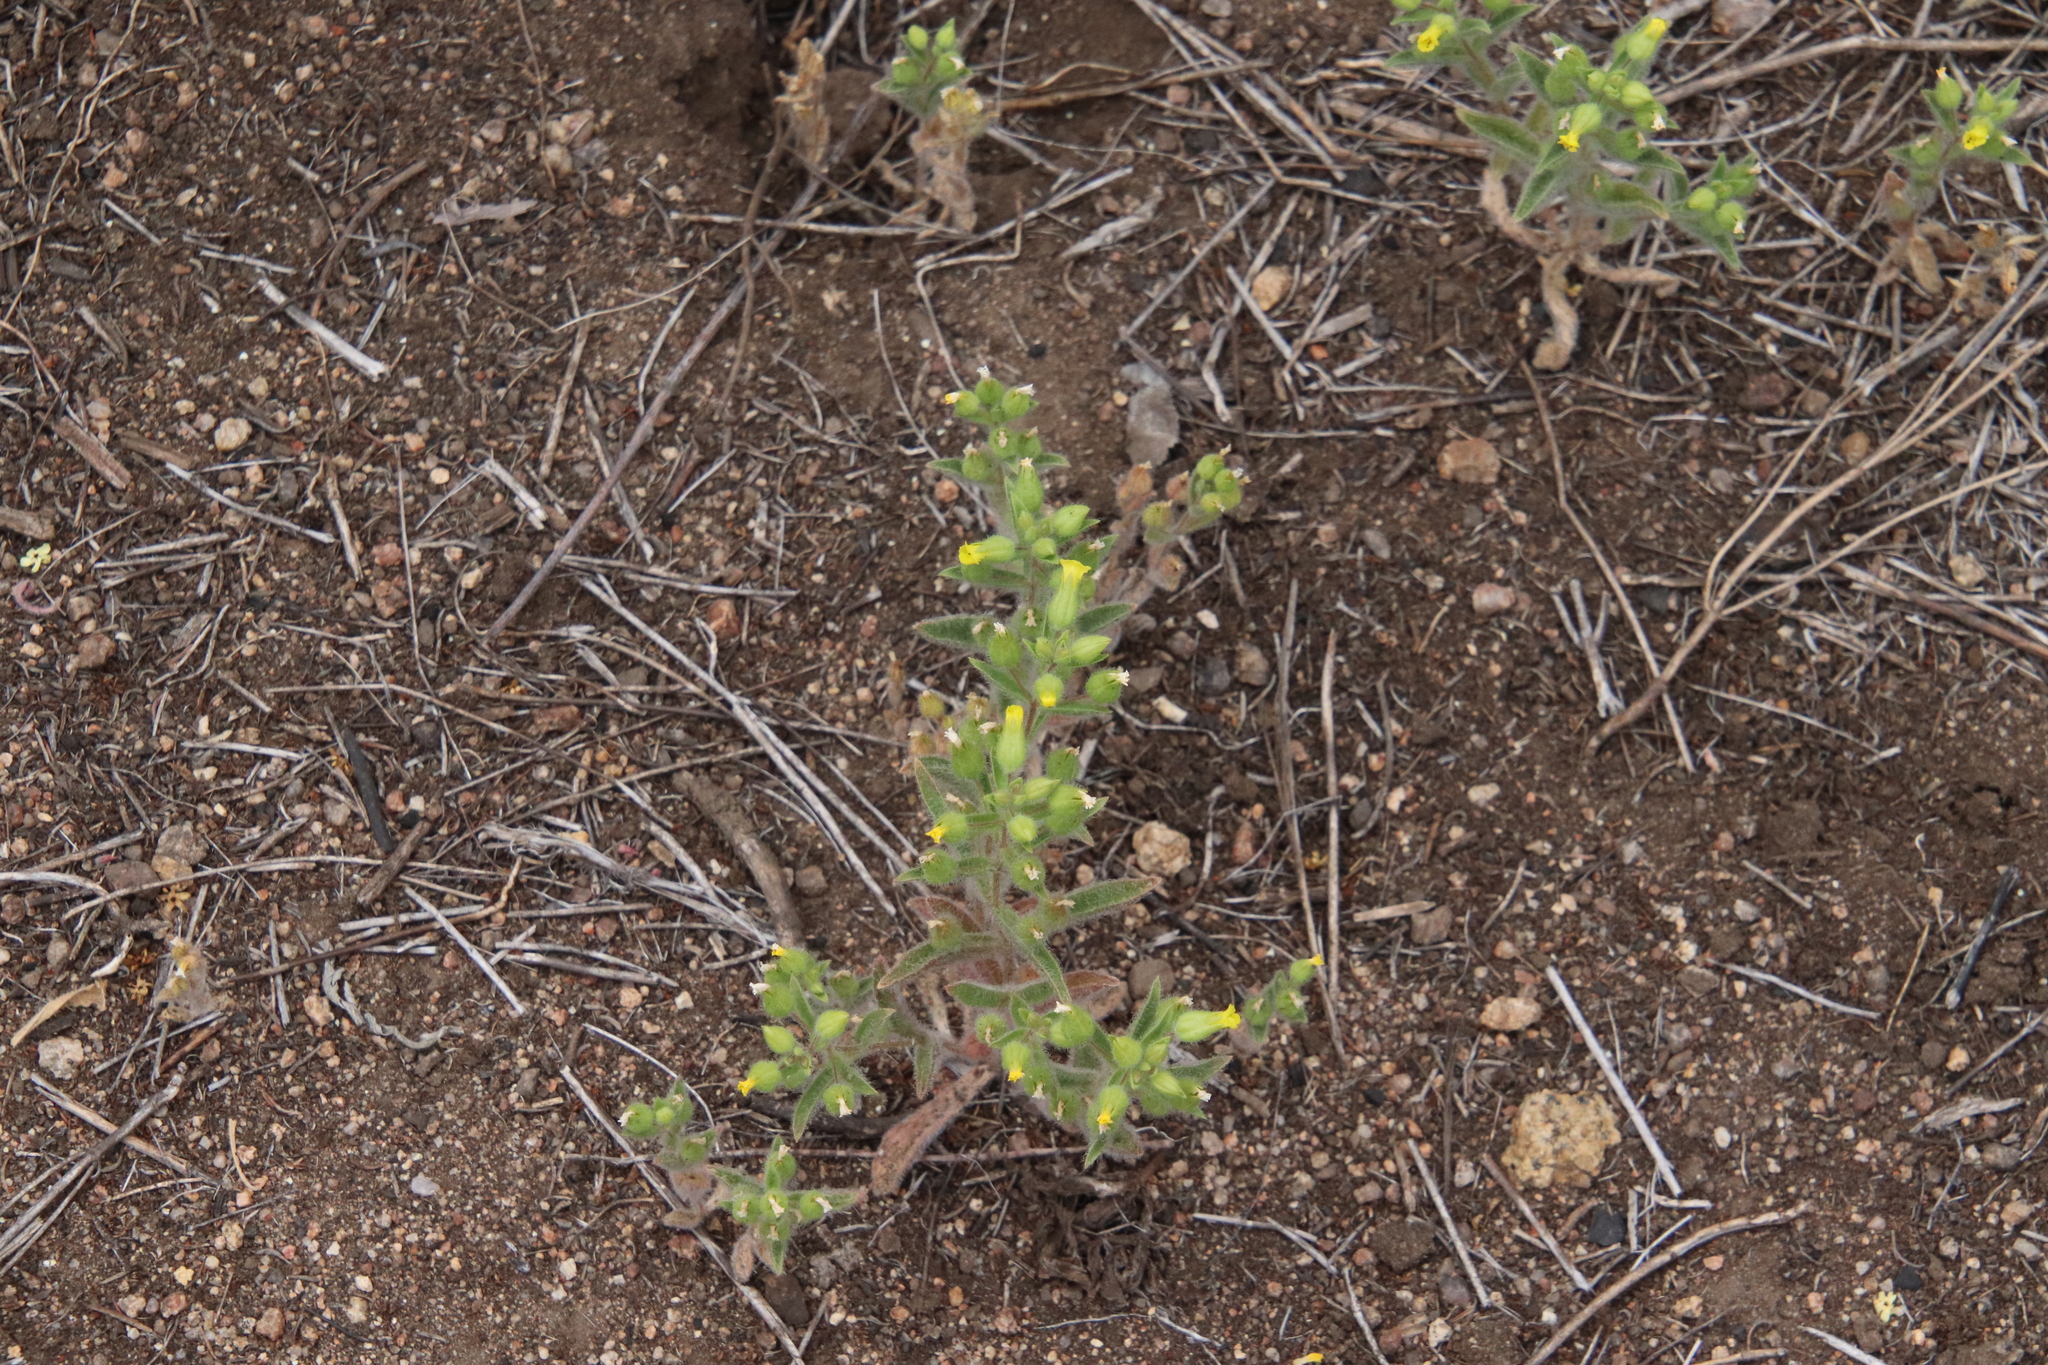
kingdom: Plantae
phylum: Tracheophyta
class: Magnoliopsida
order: Lamiales
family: Phrymaceae
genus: Mimetanthe
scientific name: Mimetanthe pilosa
